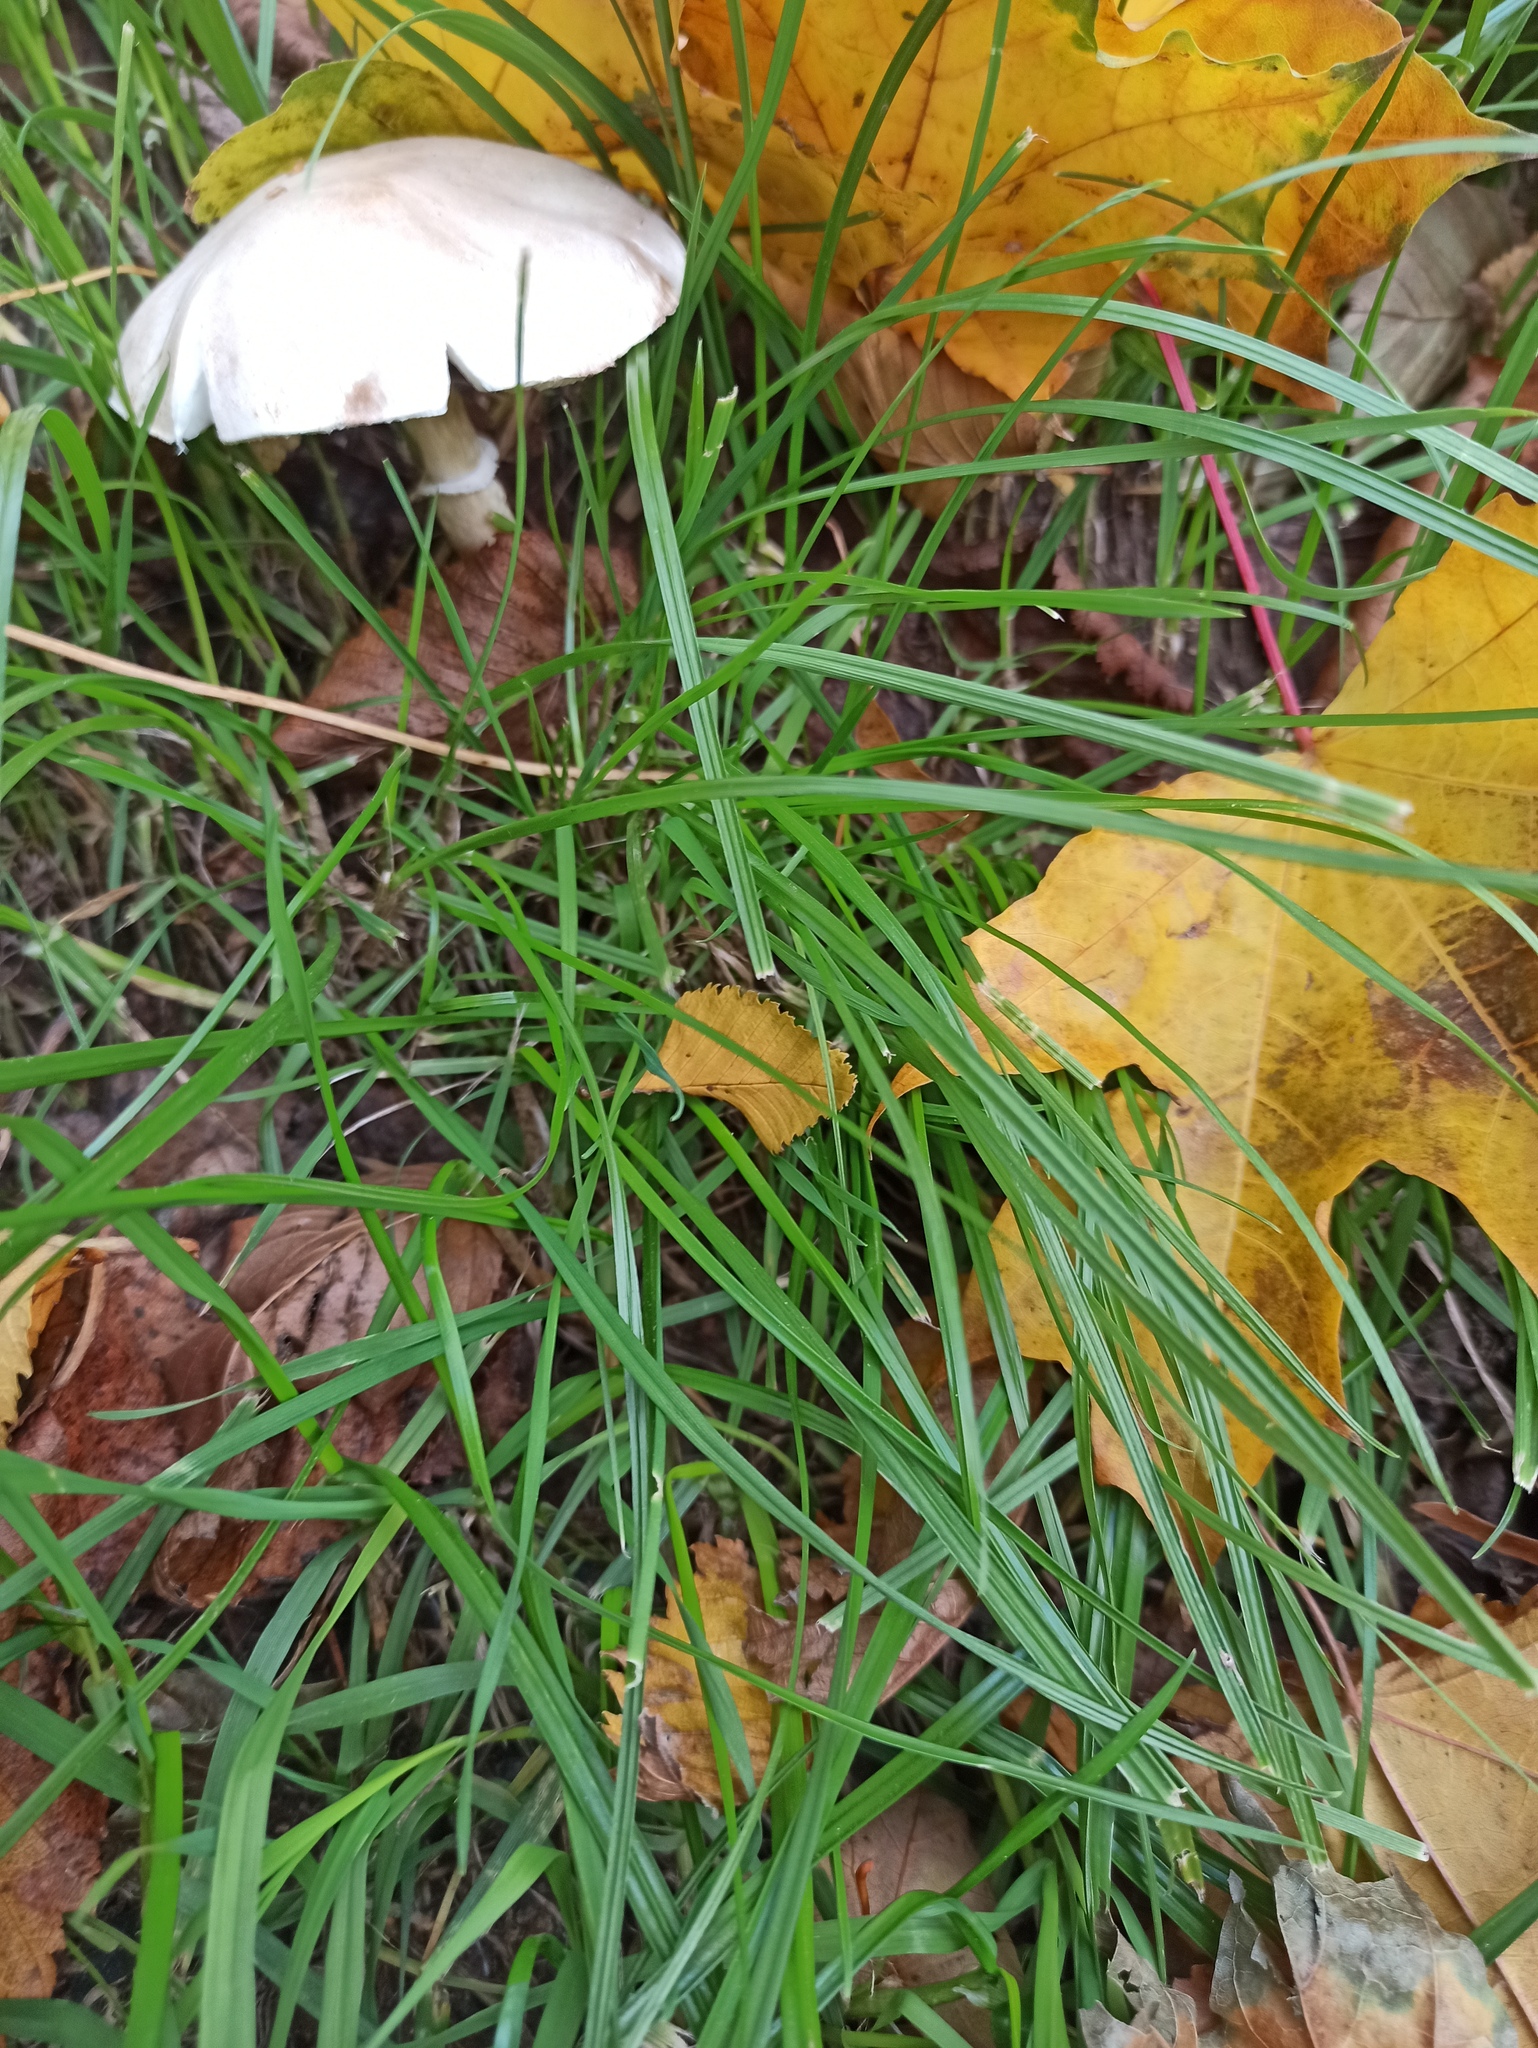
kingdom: Fungi
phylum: Basidiomycota
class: Agaricomycetes
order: Agaricales
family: Agaricaceae
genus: Leucoagaricus
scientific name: Leucoagaricus leucothites
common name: White dapperling
